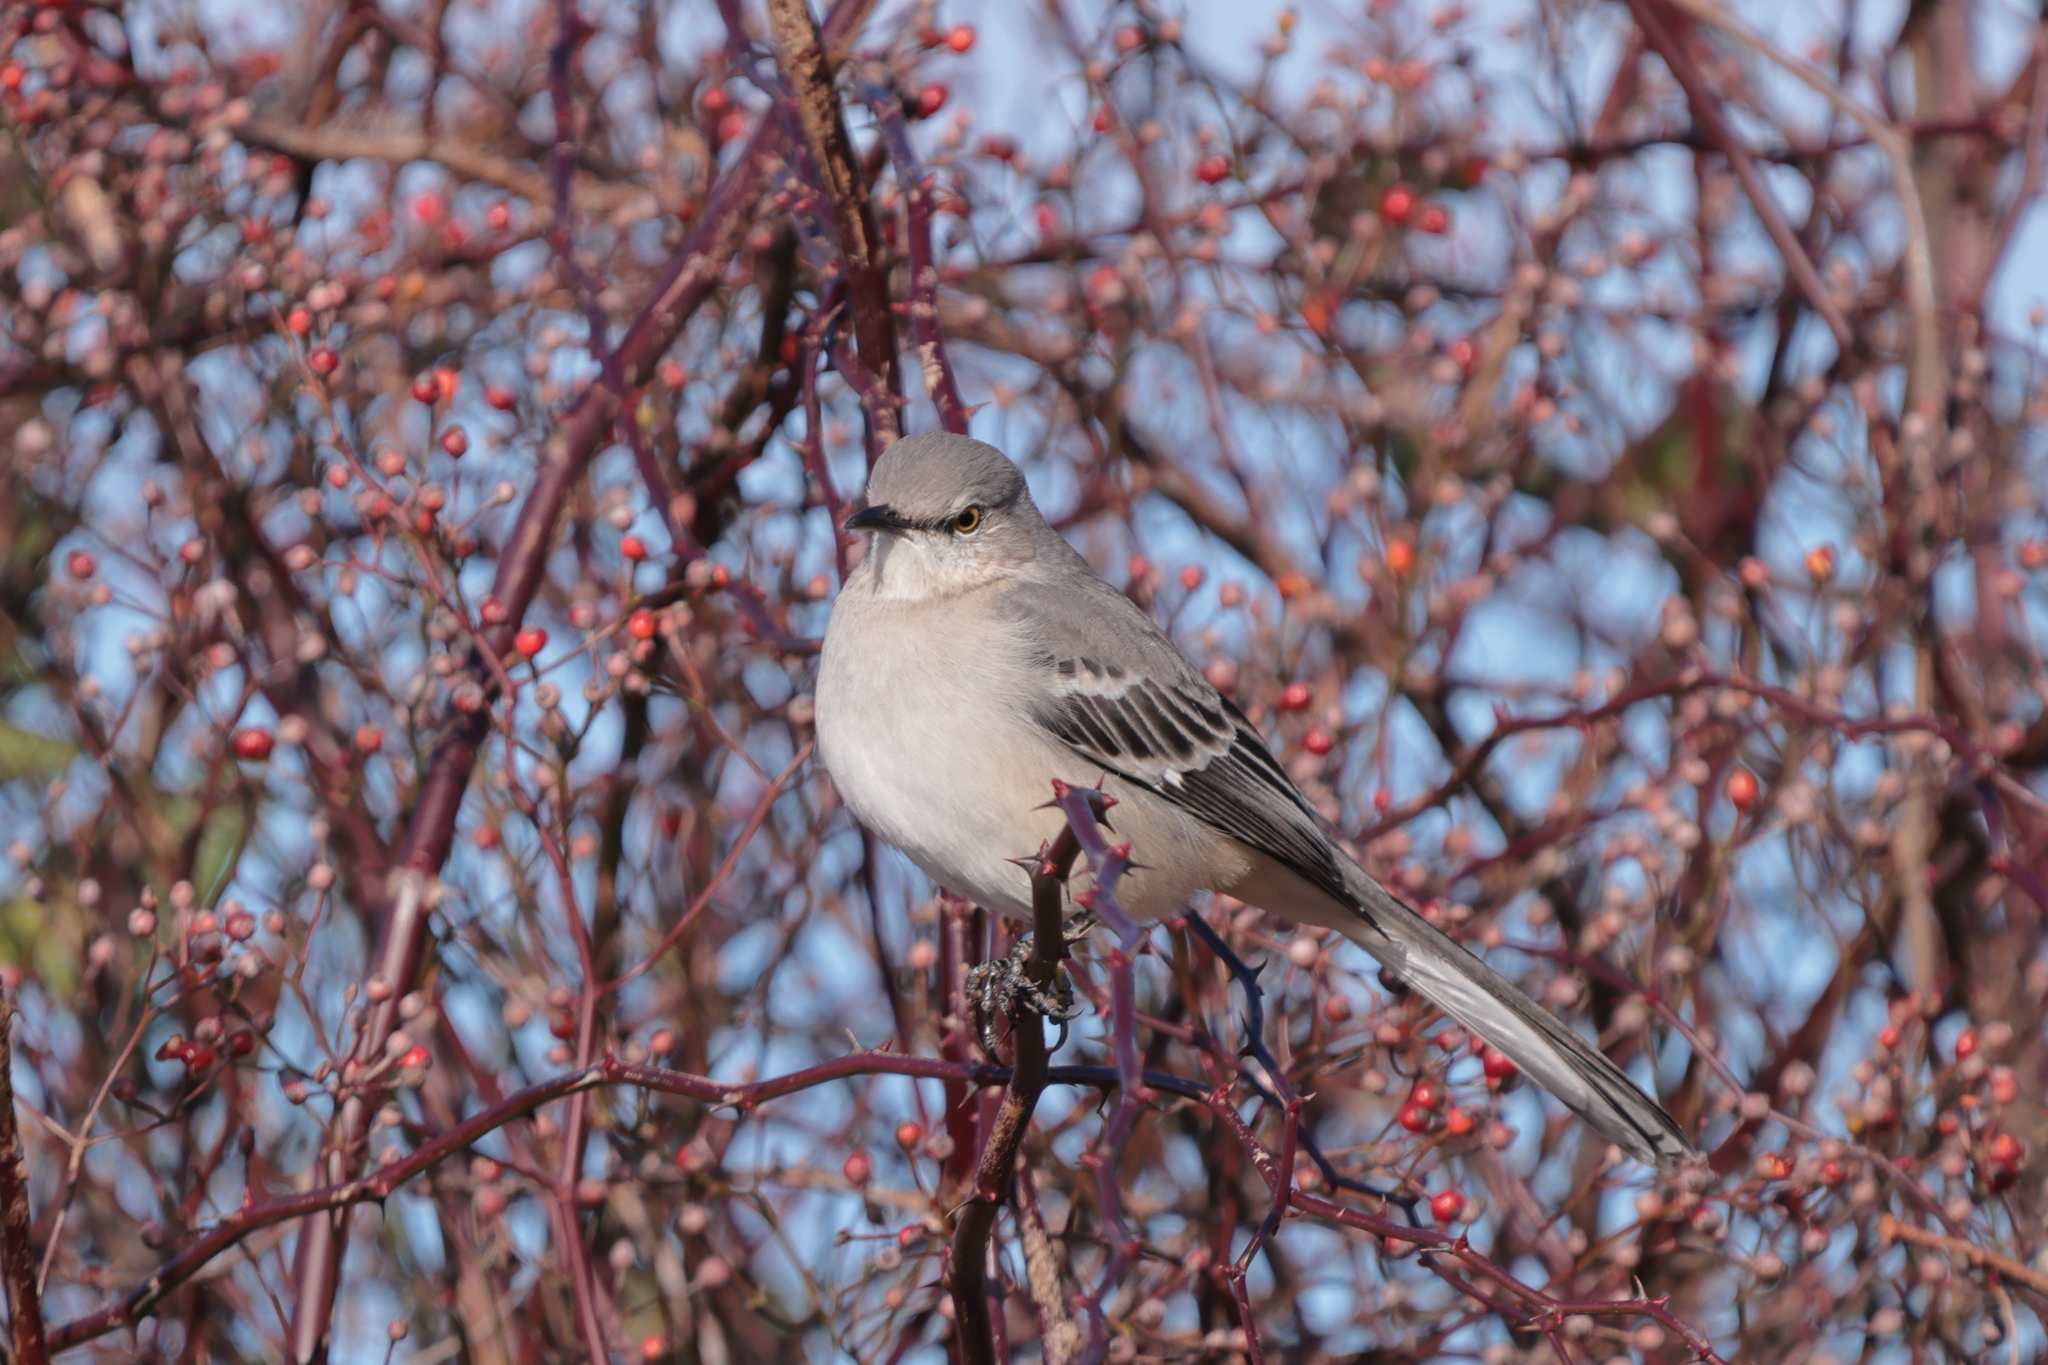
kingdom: Animalia
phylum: Chordata
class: Aves
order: Passeriformes
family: Mimidae
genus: Mimus
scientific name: Mimus polyglottos
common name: Northern mockingbird
